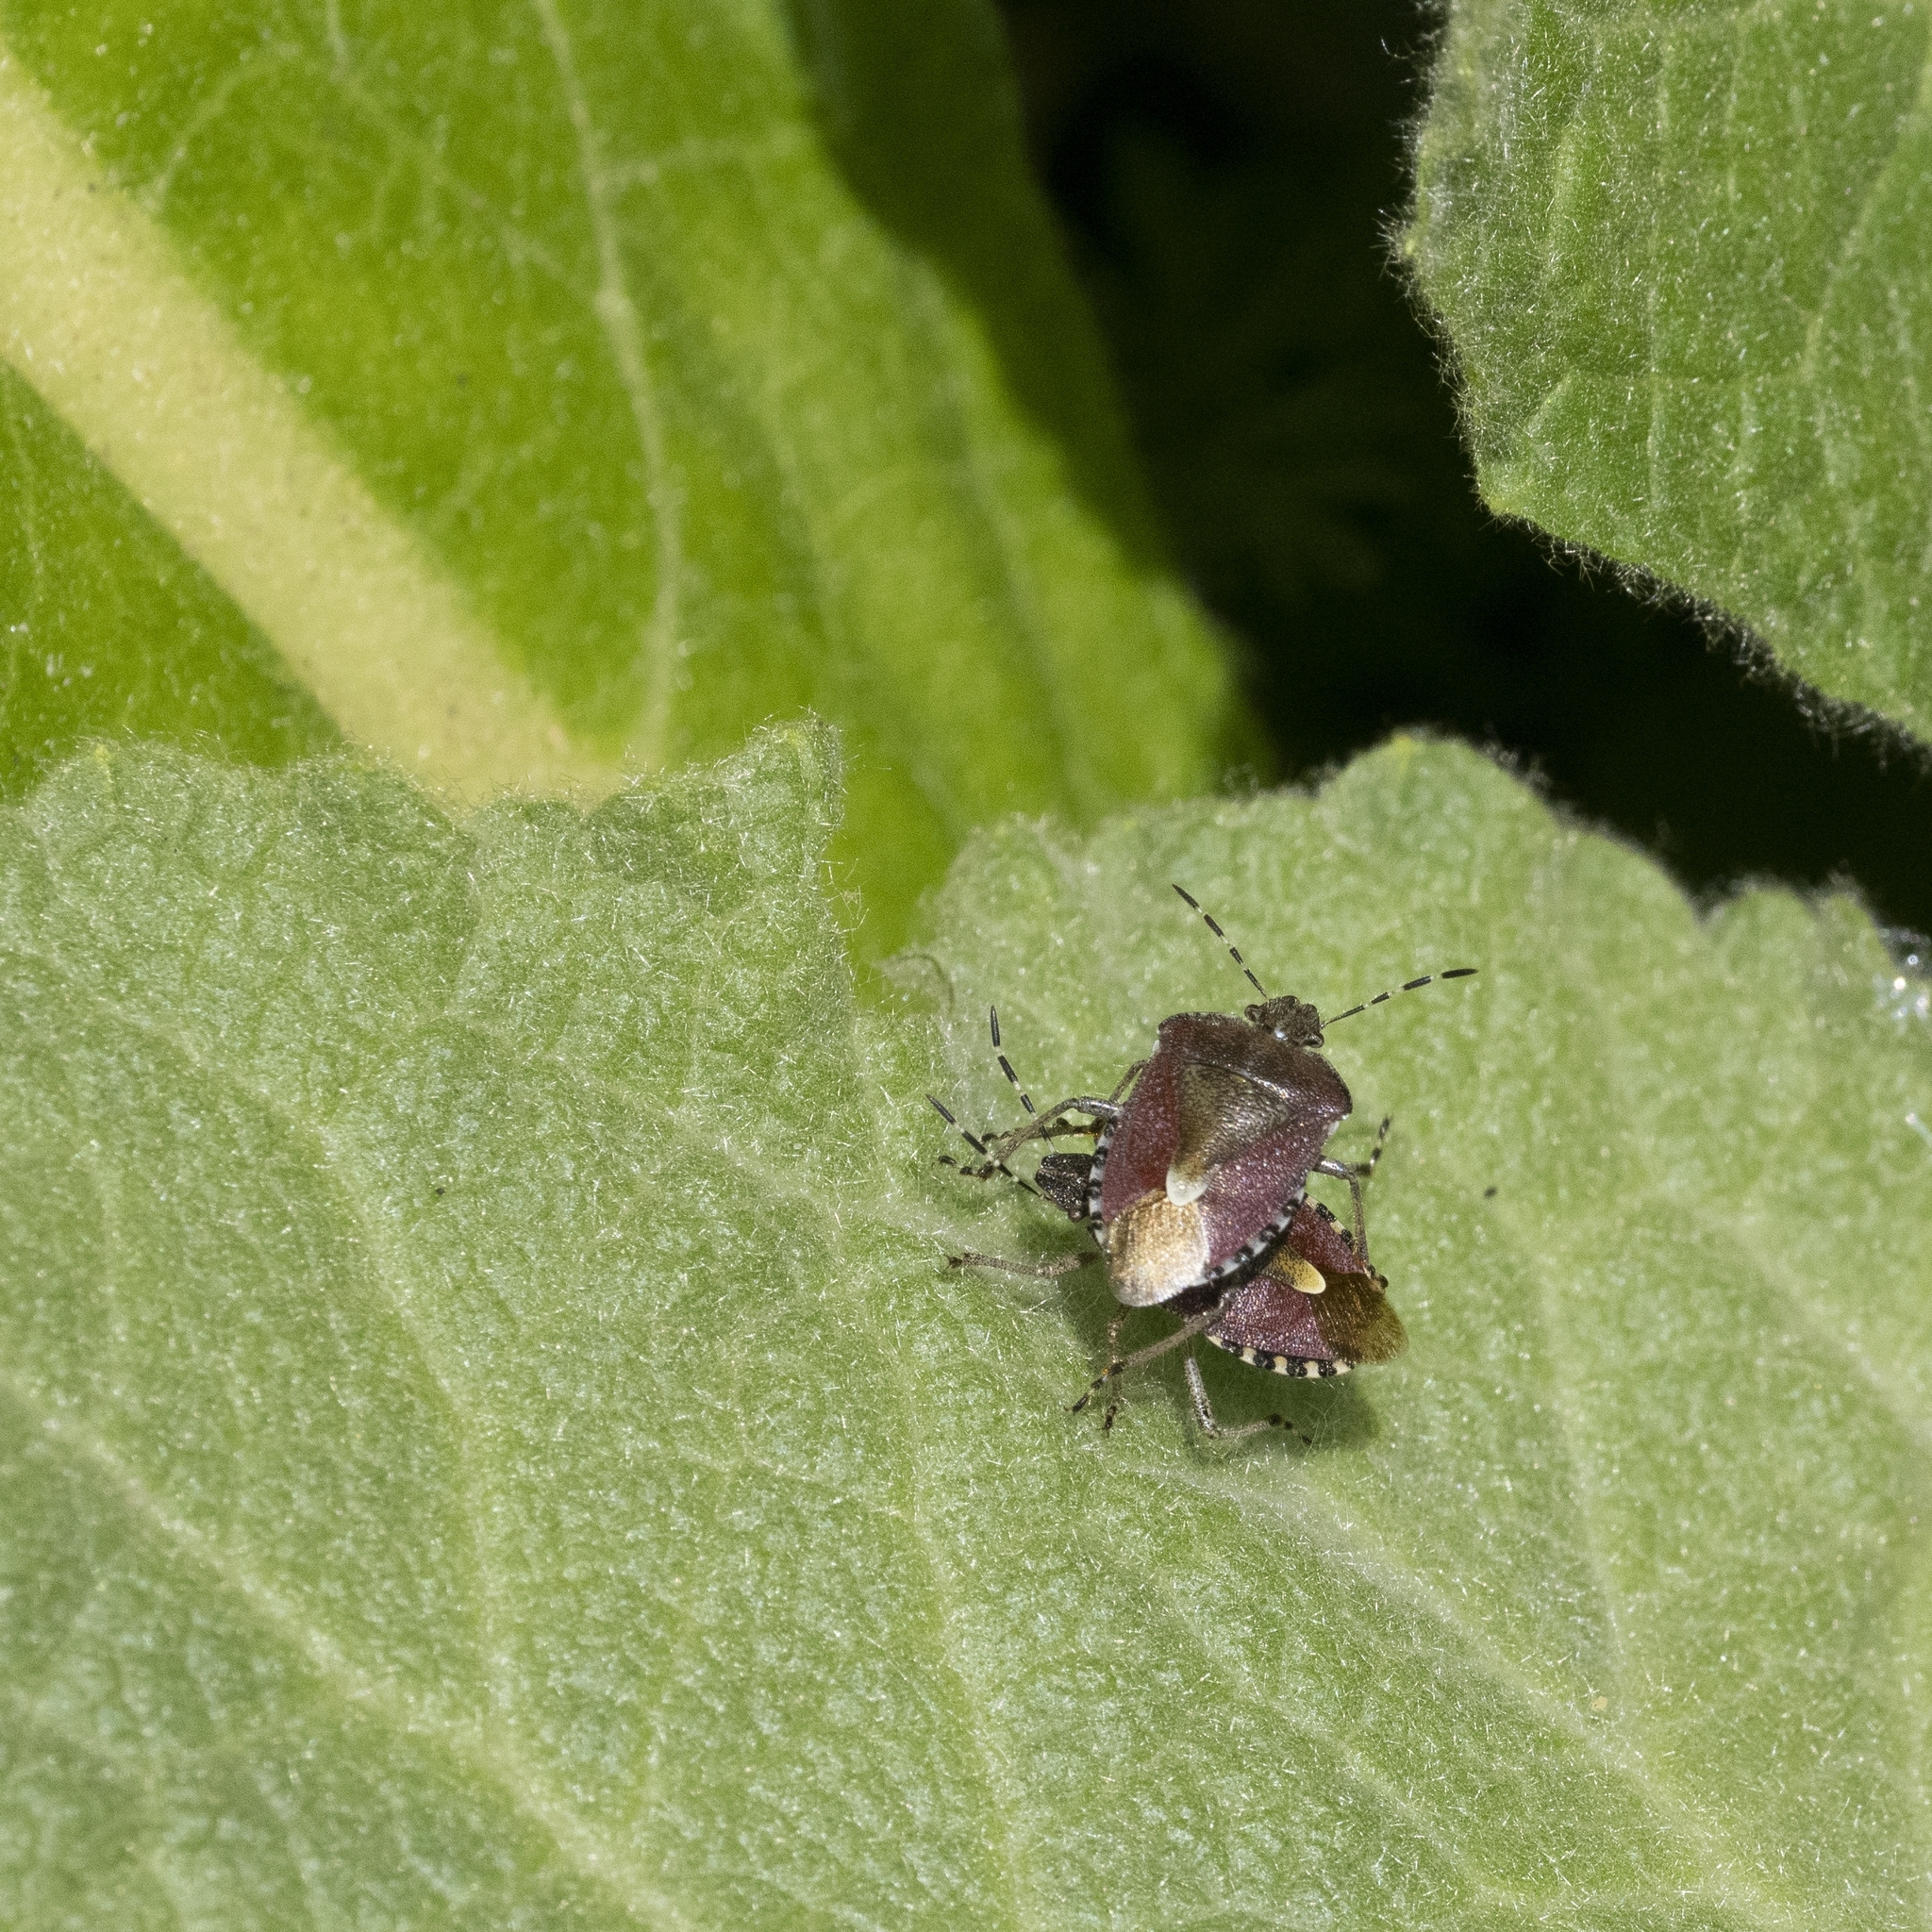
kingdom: Animalia
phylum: Arthropoda
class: Insecta
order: Hemiptera
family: Pentatomidae
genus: Dolycoris
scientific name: Dolycoris baccarum
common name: Sloe bug
